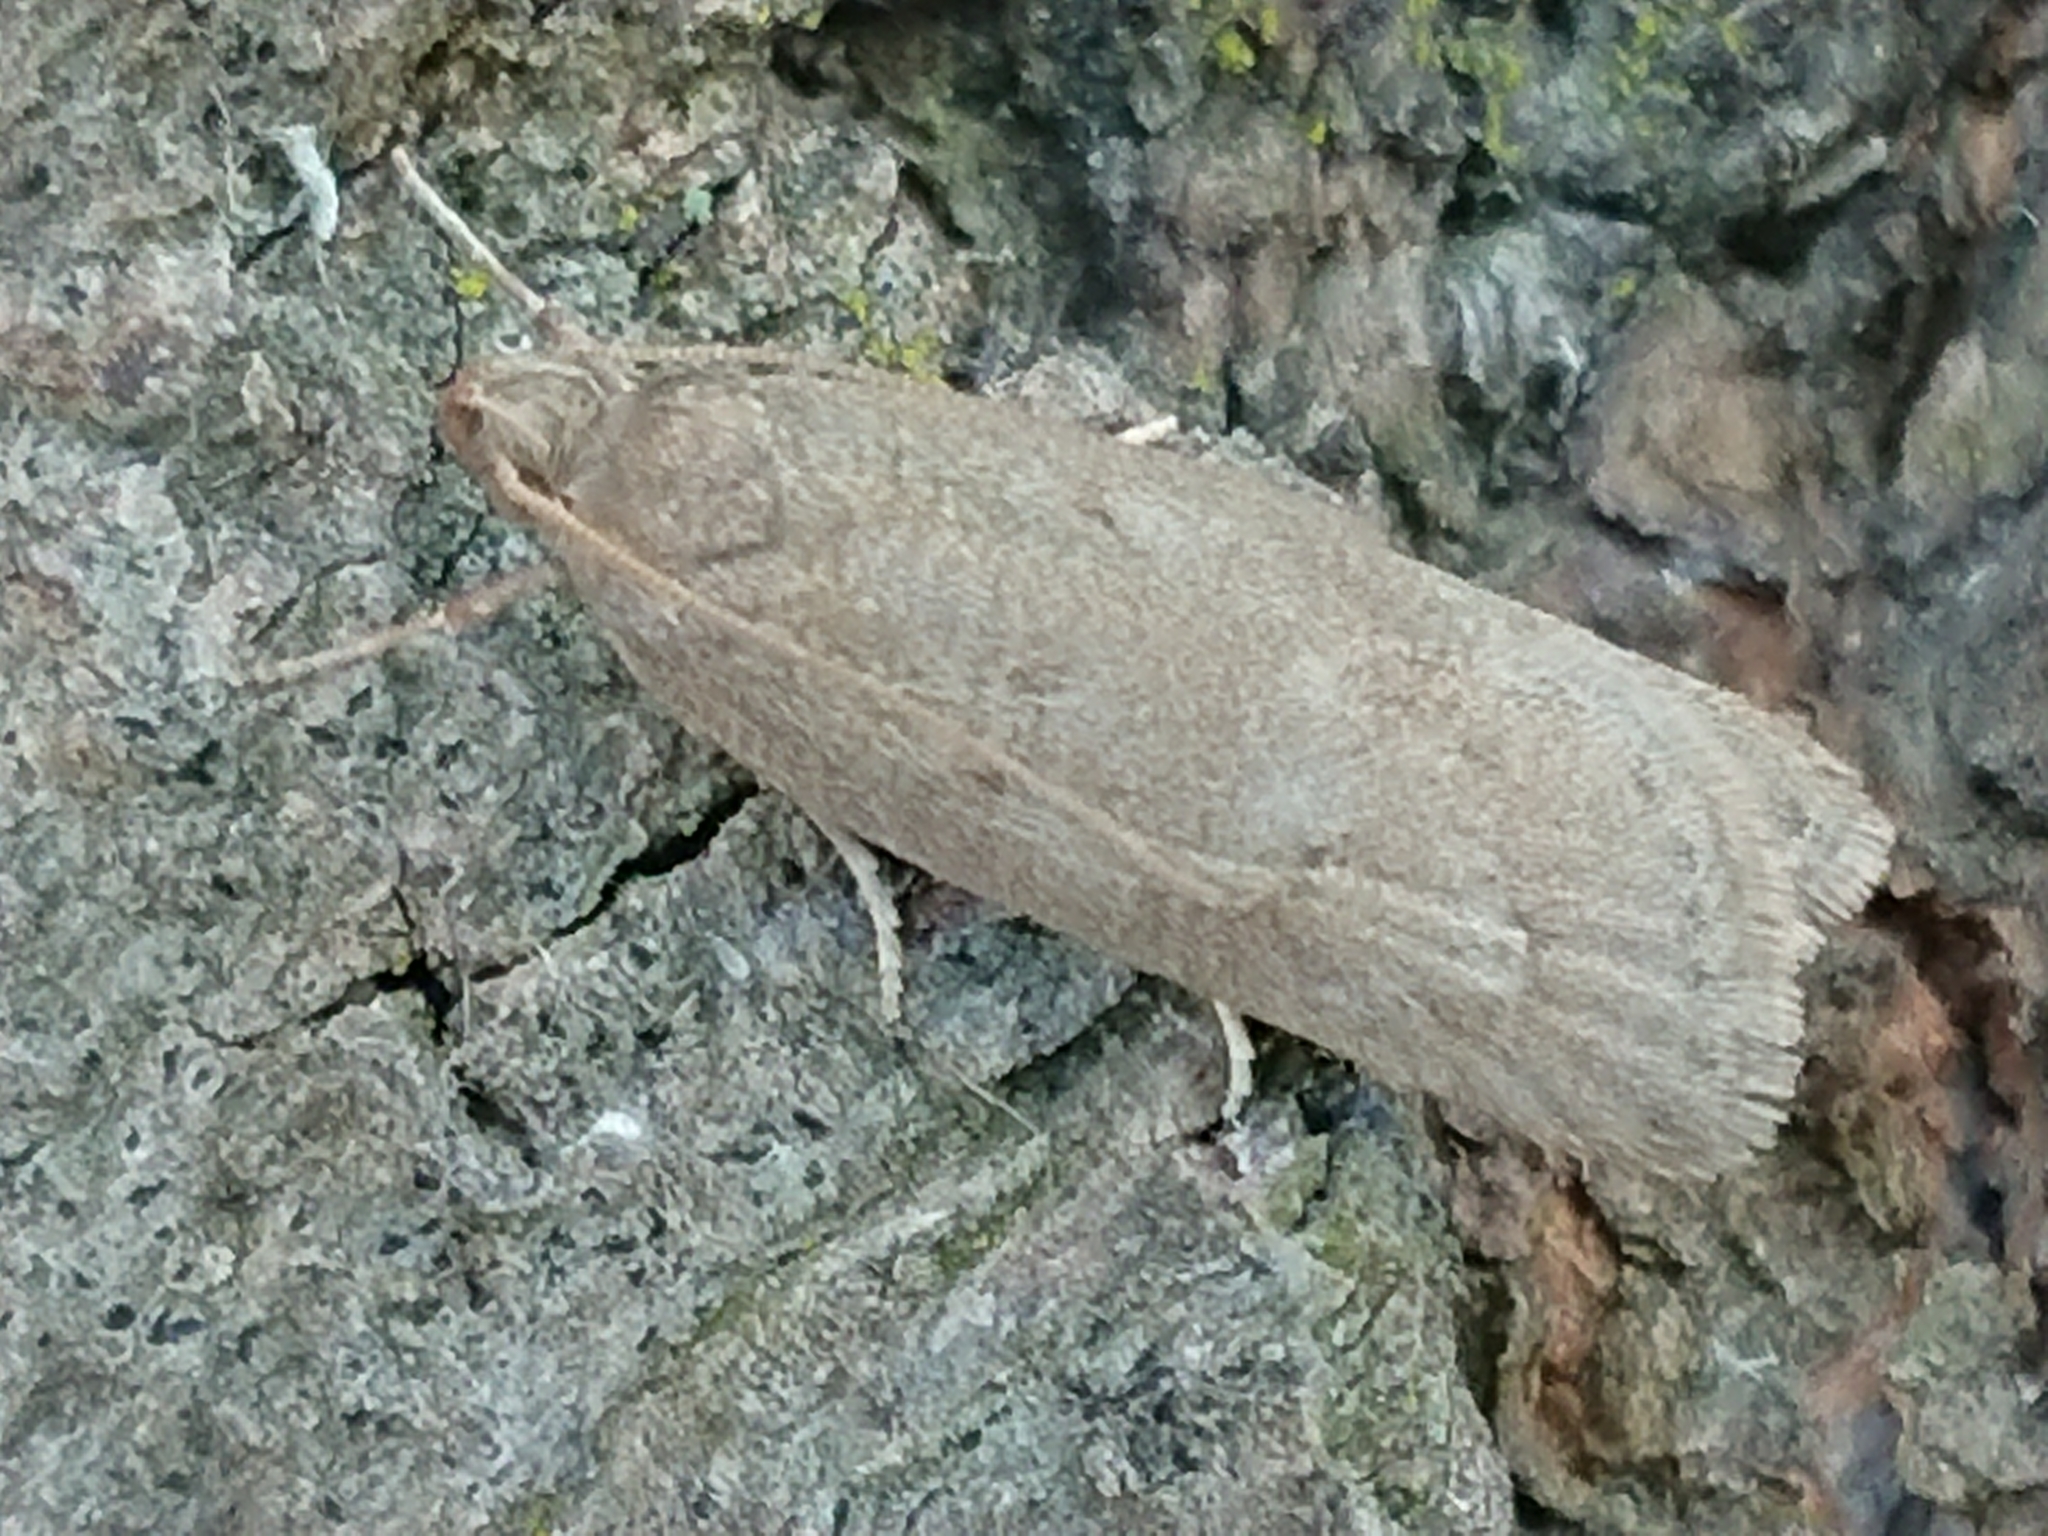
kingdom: Animalia
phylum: Arthropoda
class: Insecta
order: Lepidoptera
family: Depressariidae
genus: Phaeosaces
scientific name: Phaeosaces apocrypta
